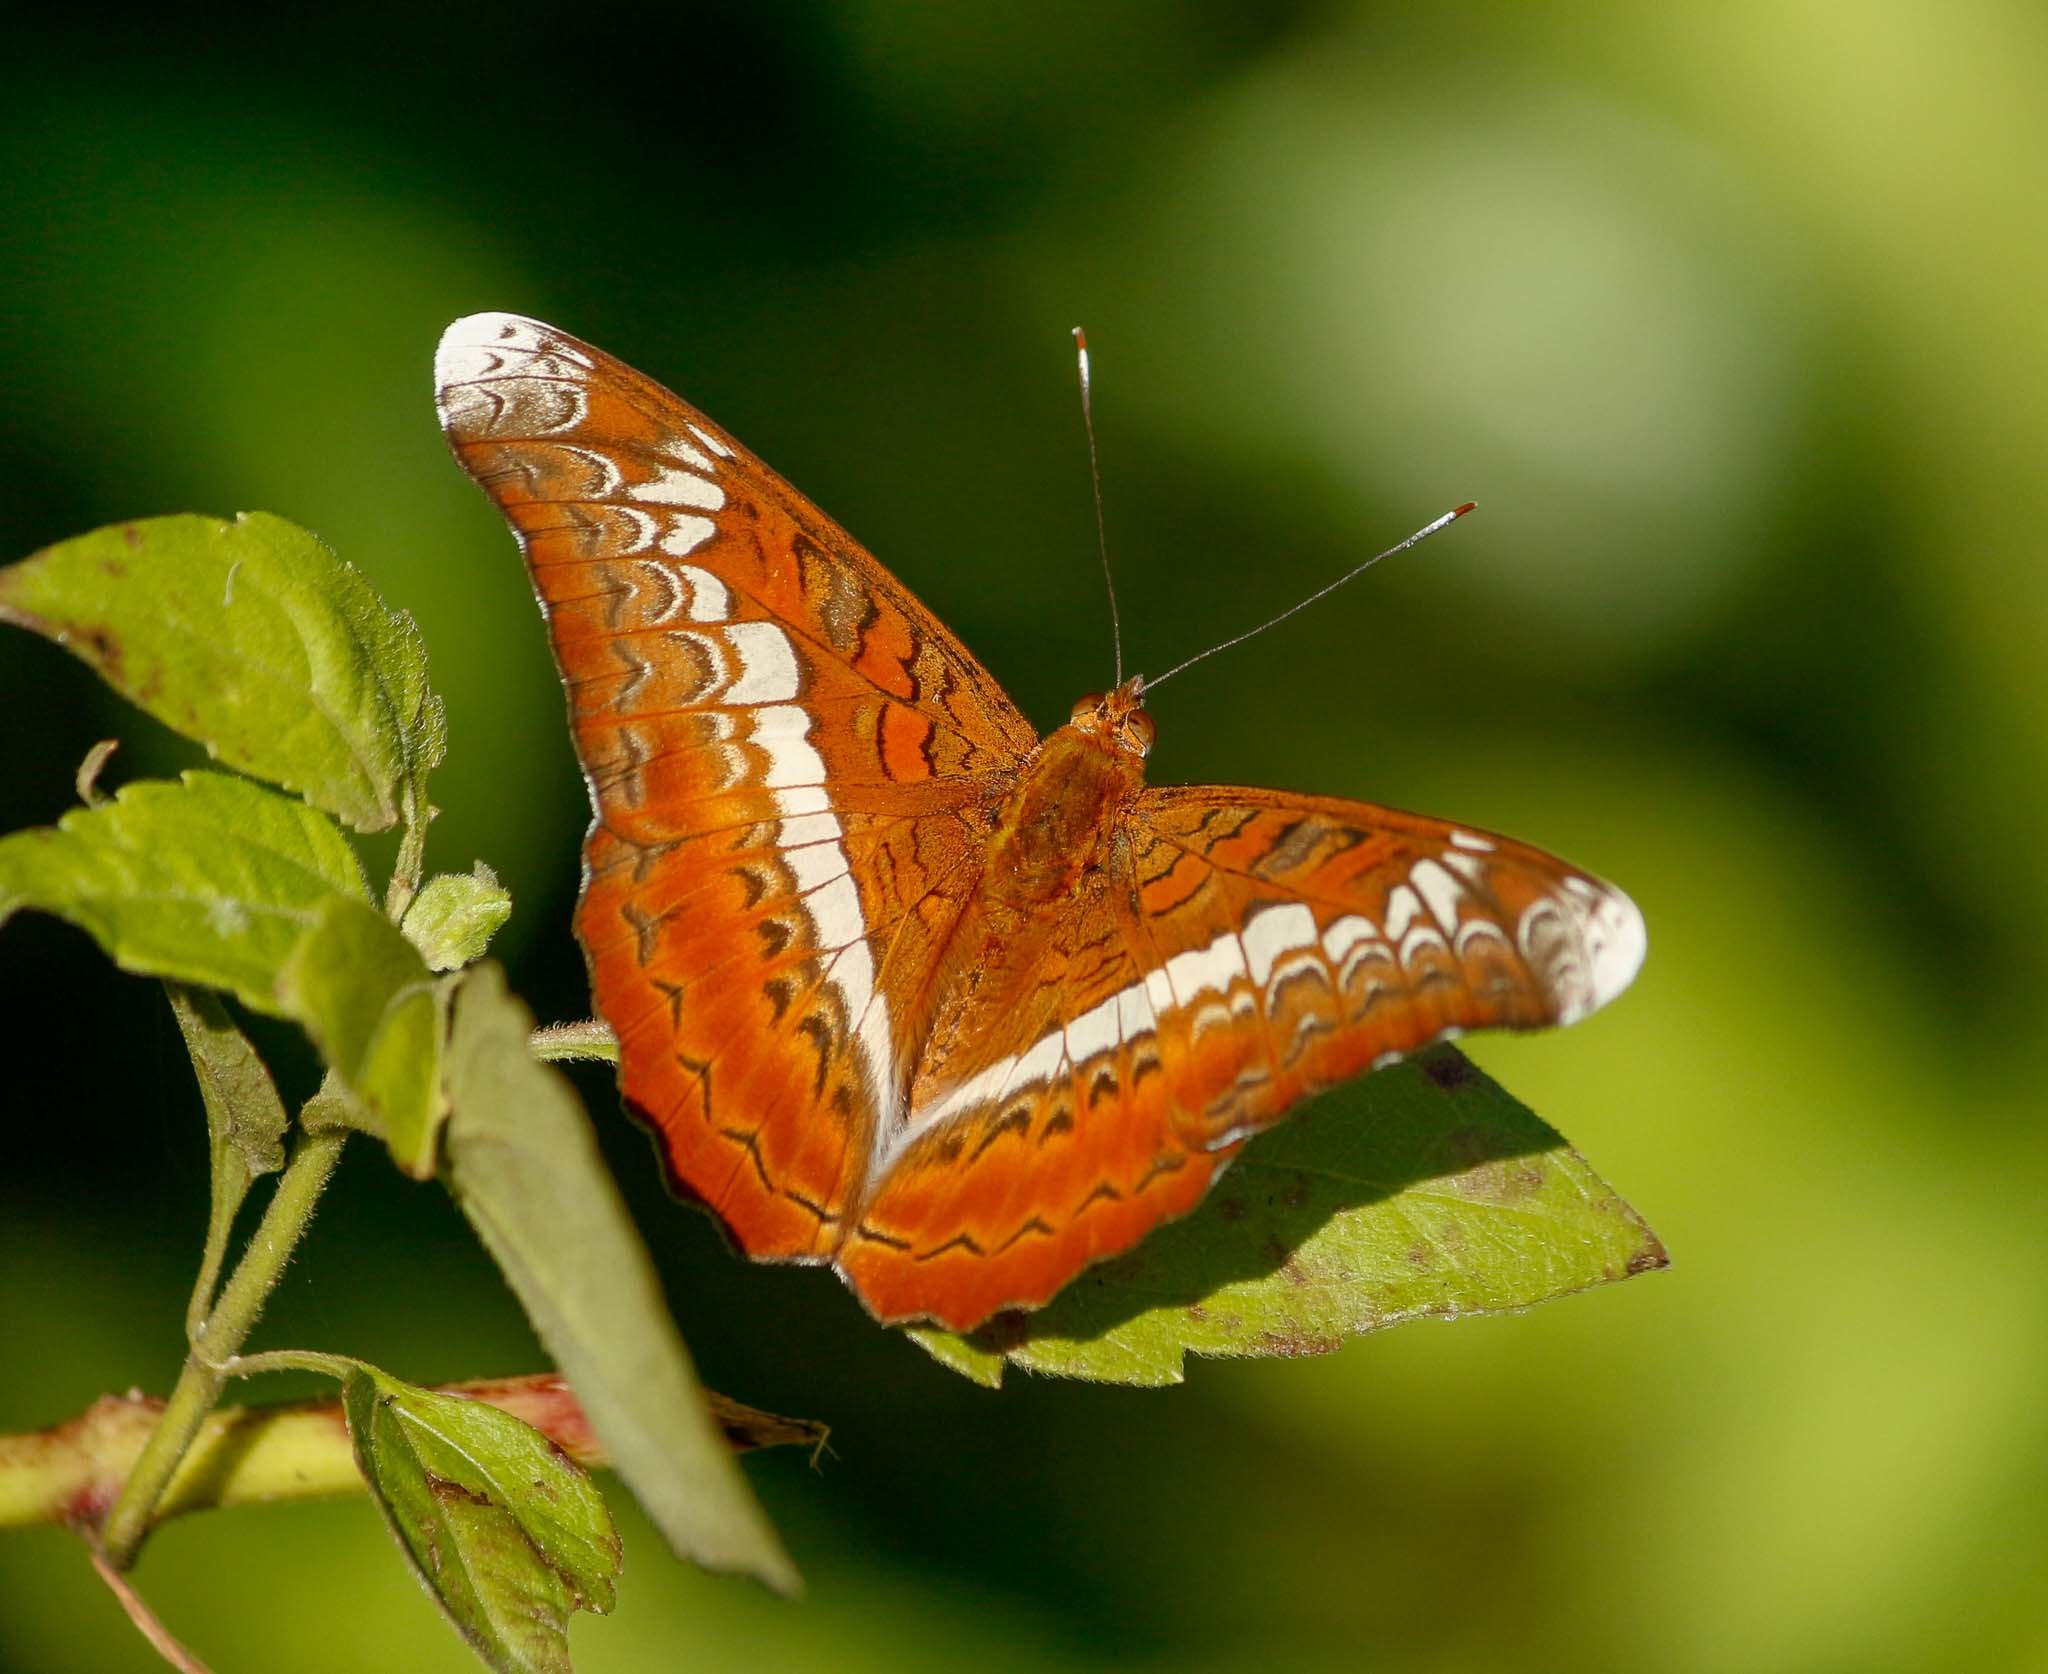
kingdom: Animalia
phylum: Arthropoda
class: Insecta
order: Lepidoptera
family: Nymphalidae
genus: Lebadea
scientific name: Lebadea martha
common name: Knight
